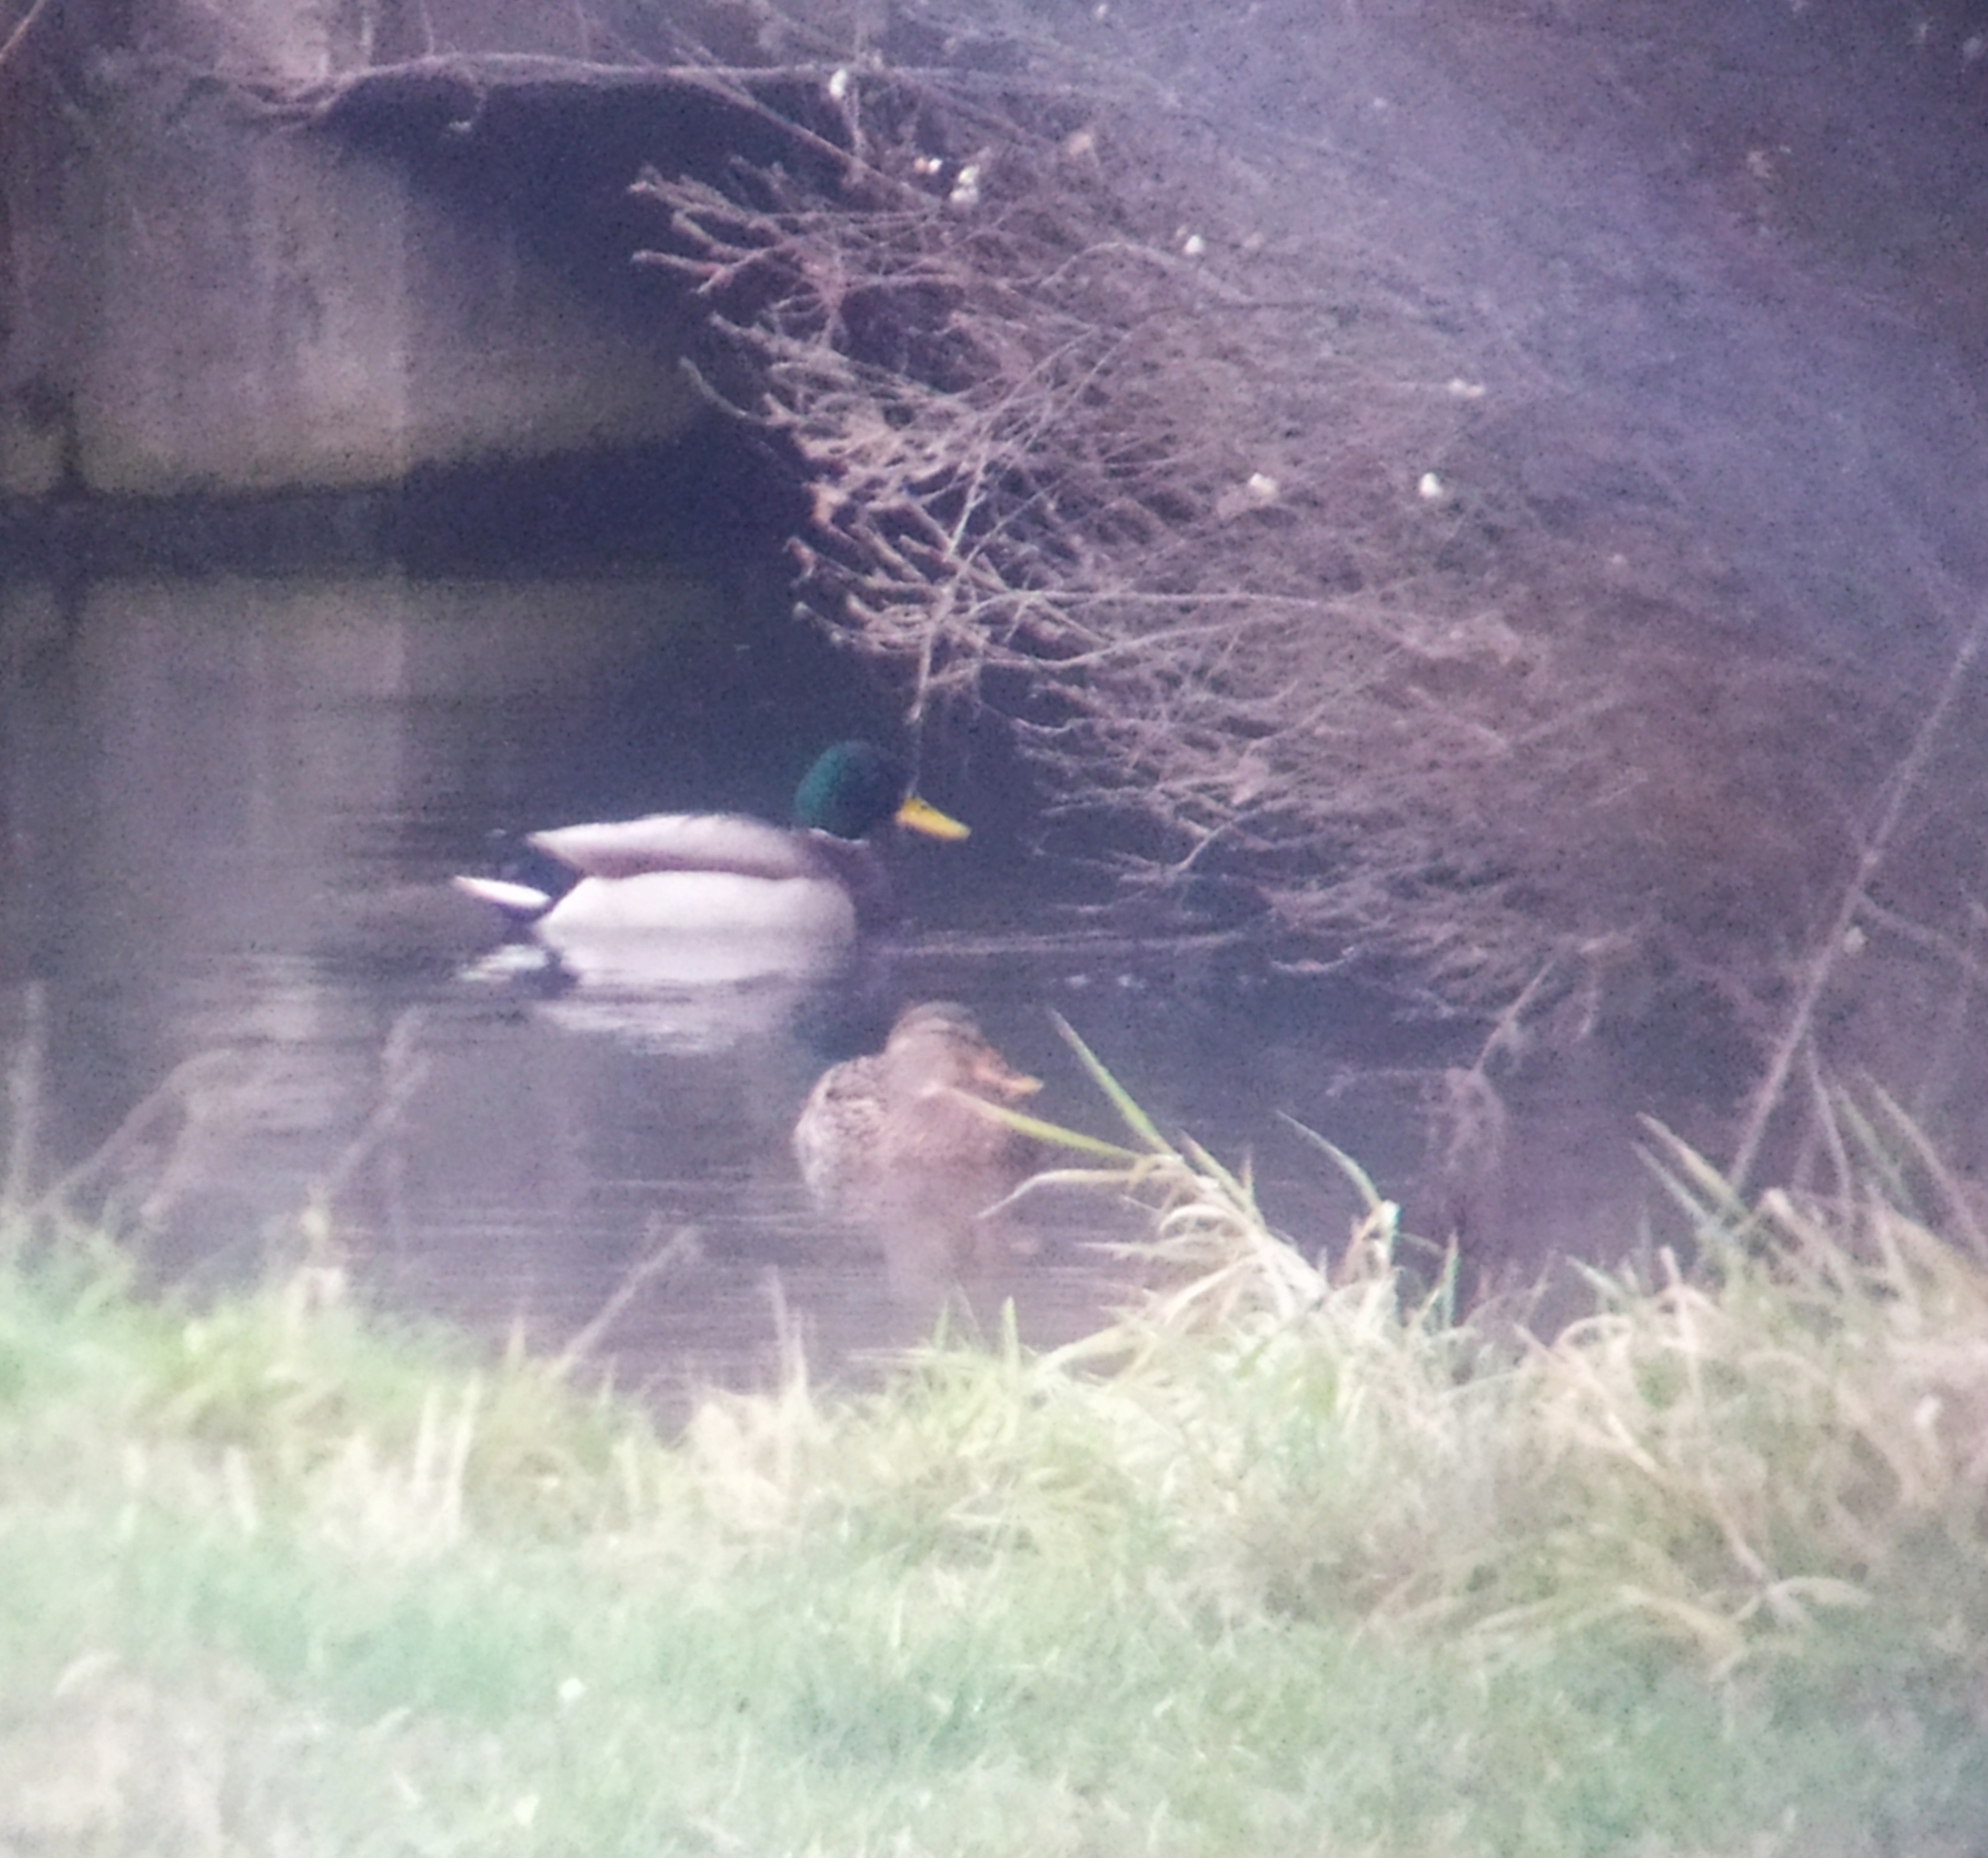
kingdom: Animalia
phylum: Chordata
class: Aves
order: Anseriformes
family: Anatidae
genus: Anas
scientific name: Anas platyrhynchos
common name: Mallard
